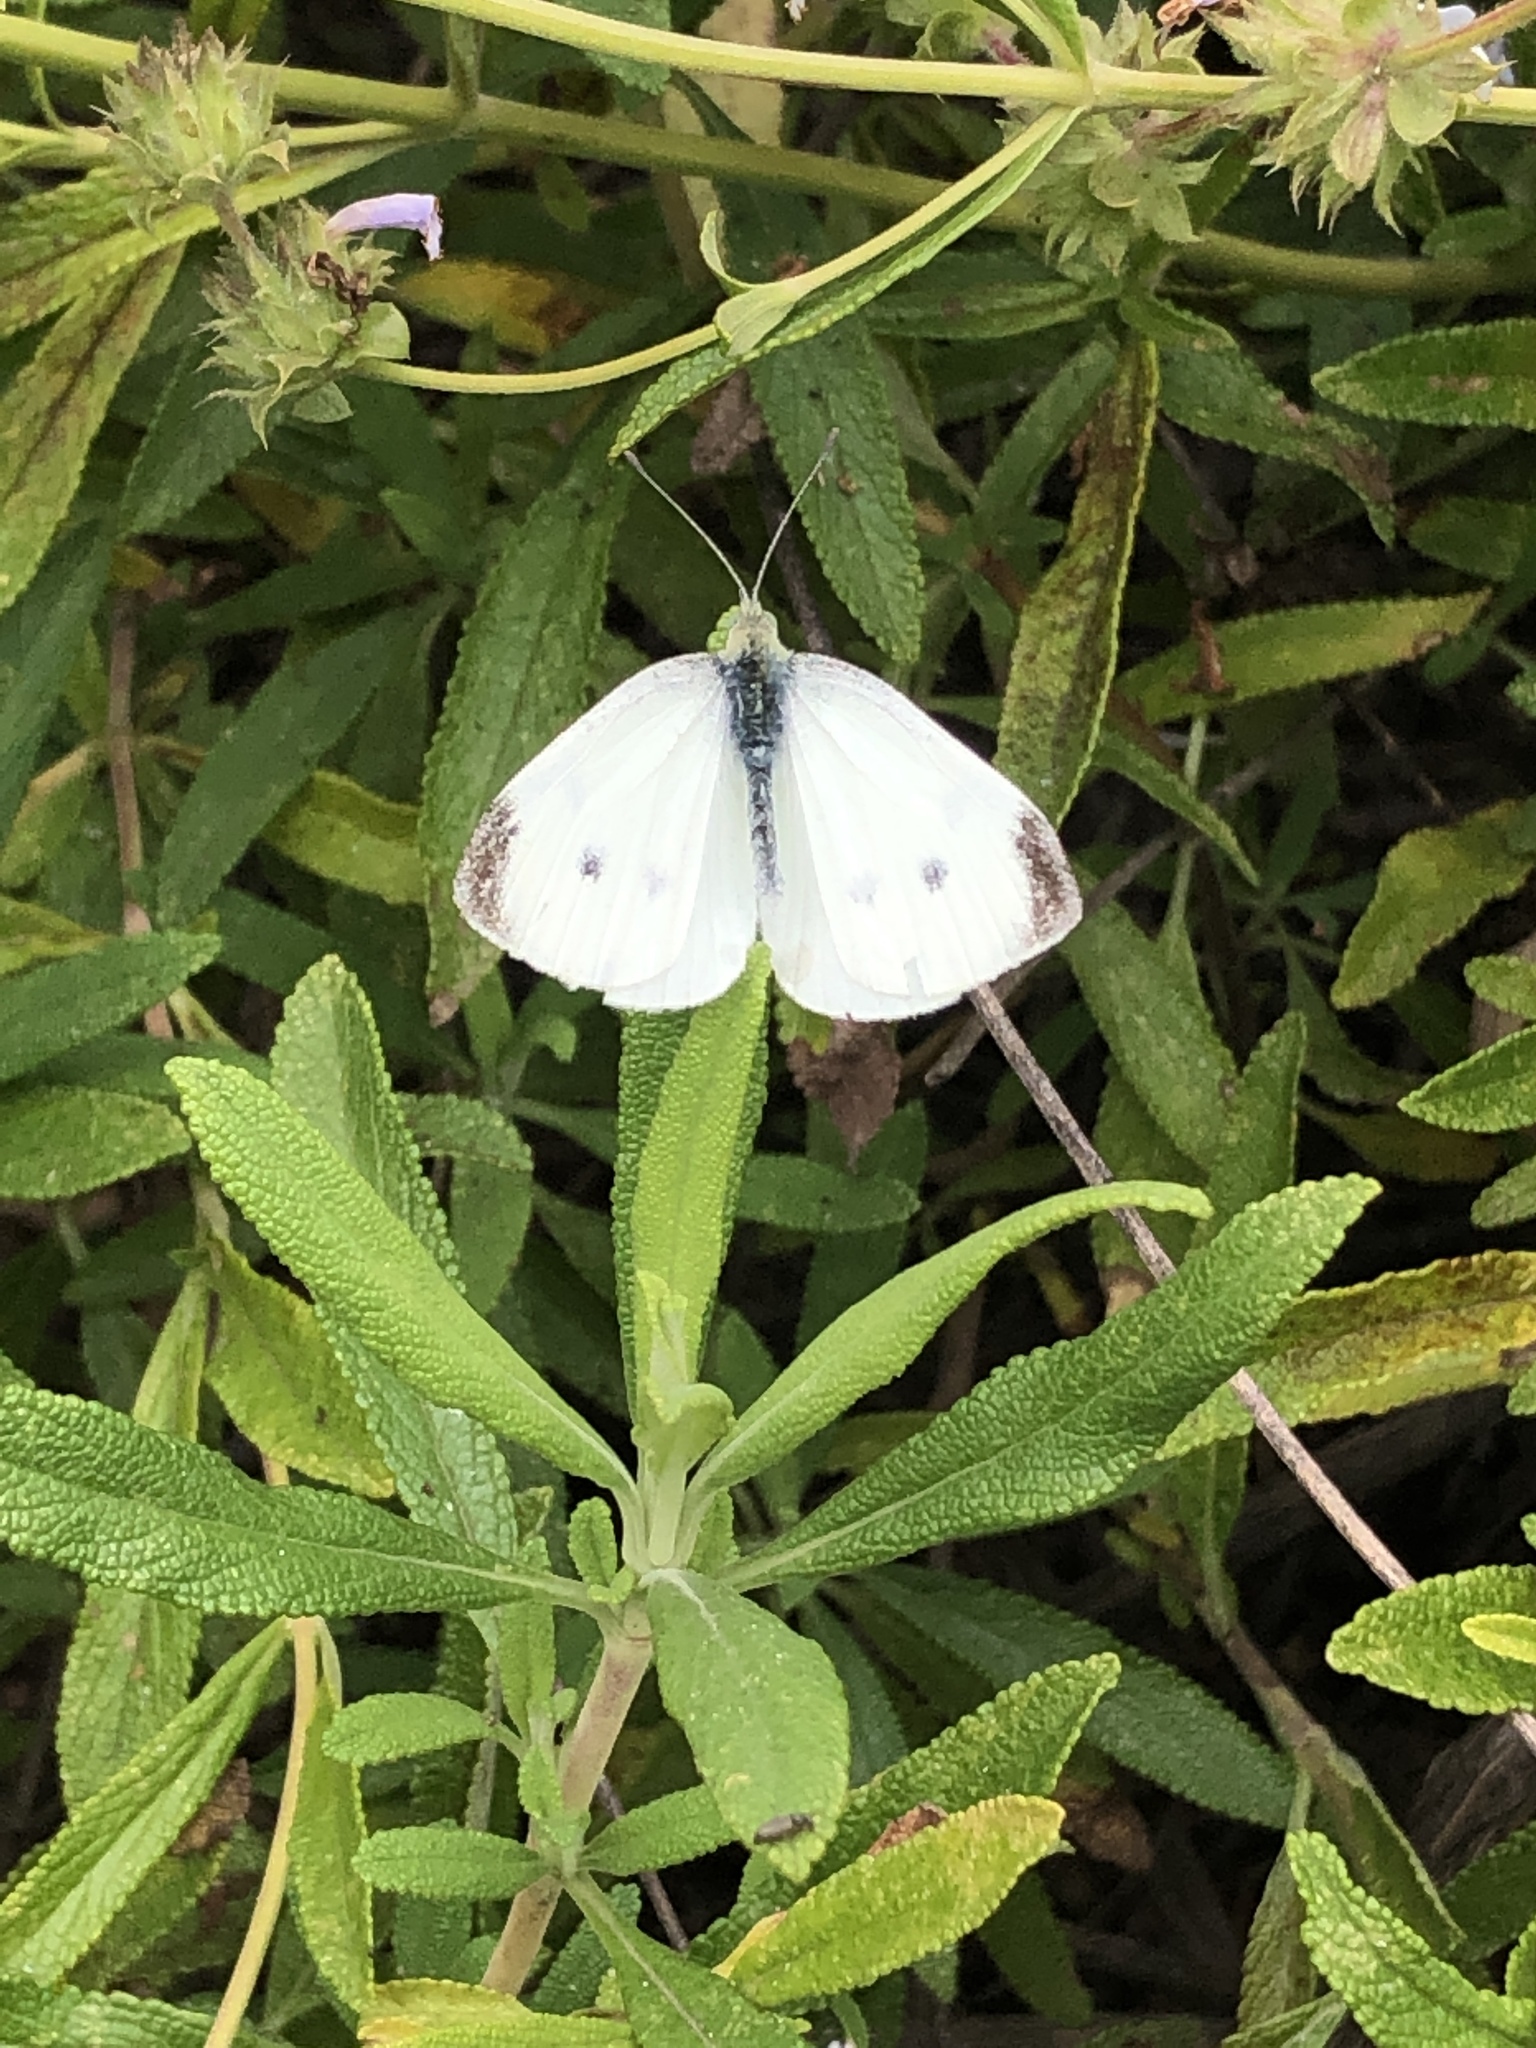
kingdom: Animalia
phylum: Arthropoda
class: Insecta
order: Lepidoptera
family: Pieridae
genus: Pieris
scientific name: Pieris rapae
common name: Small white
